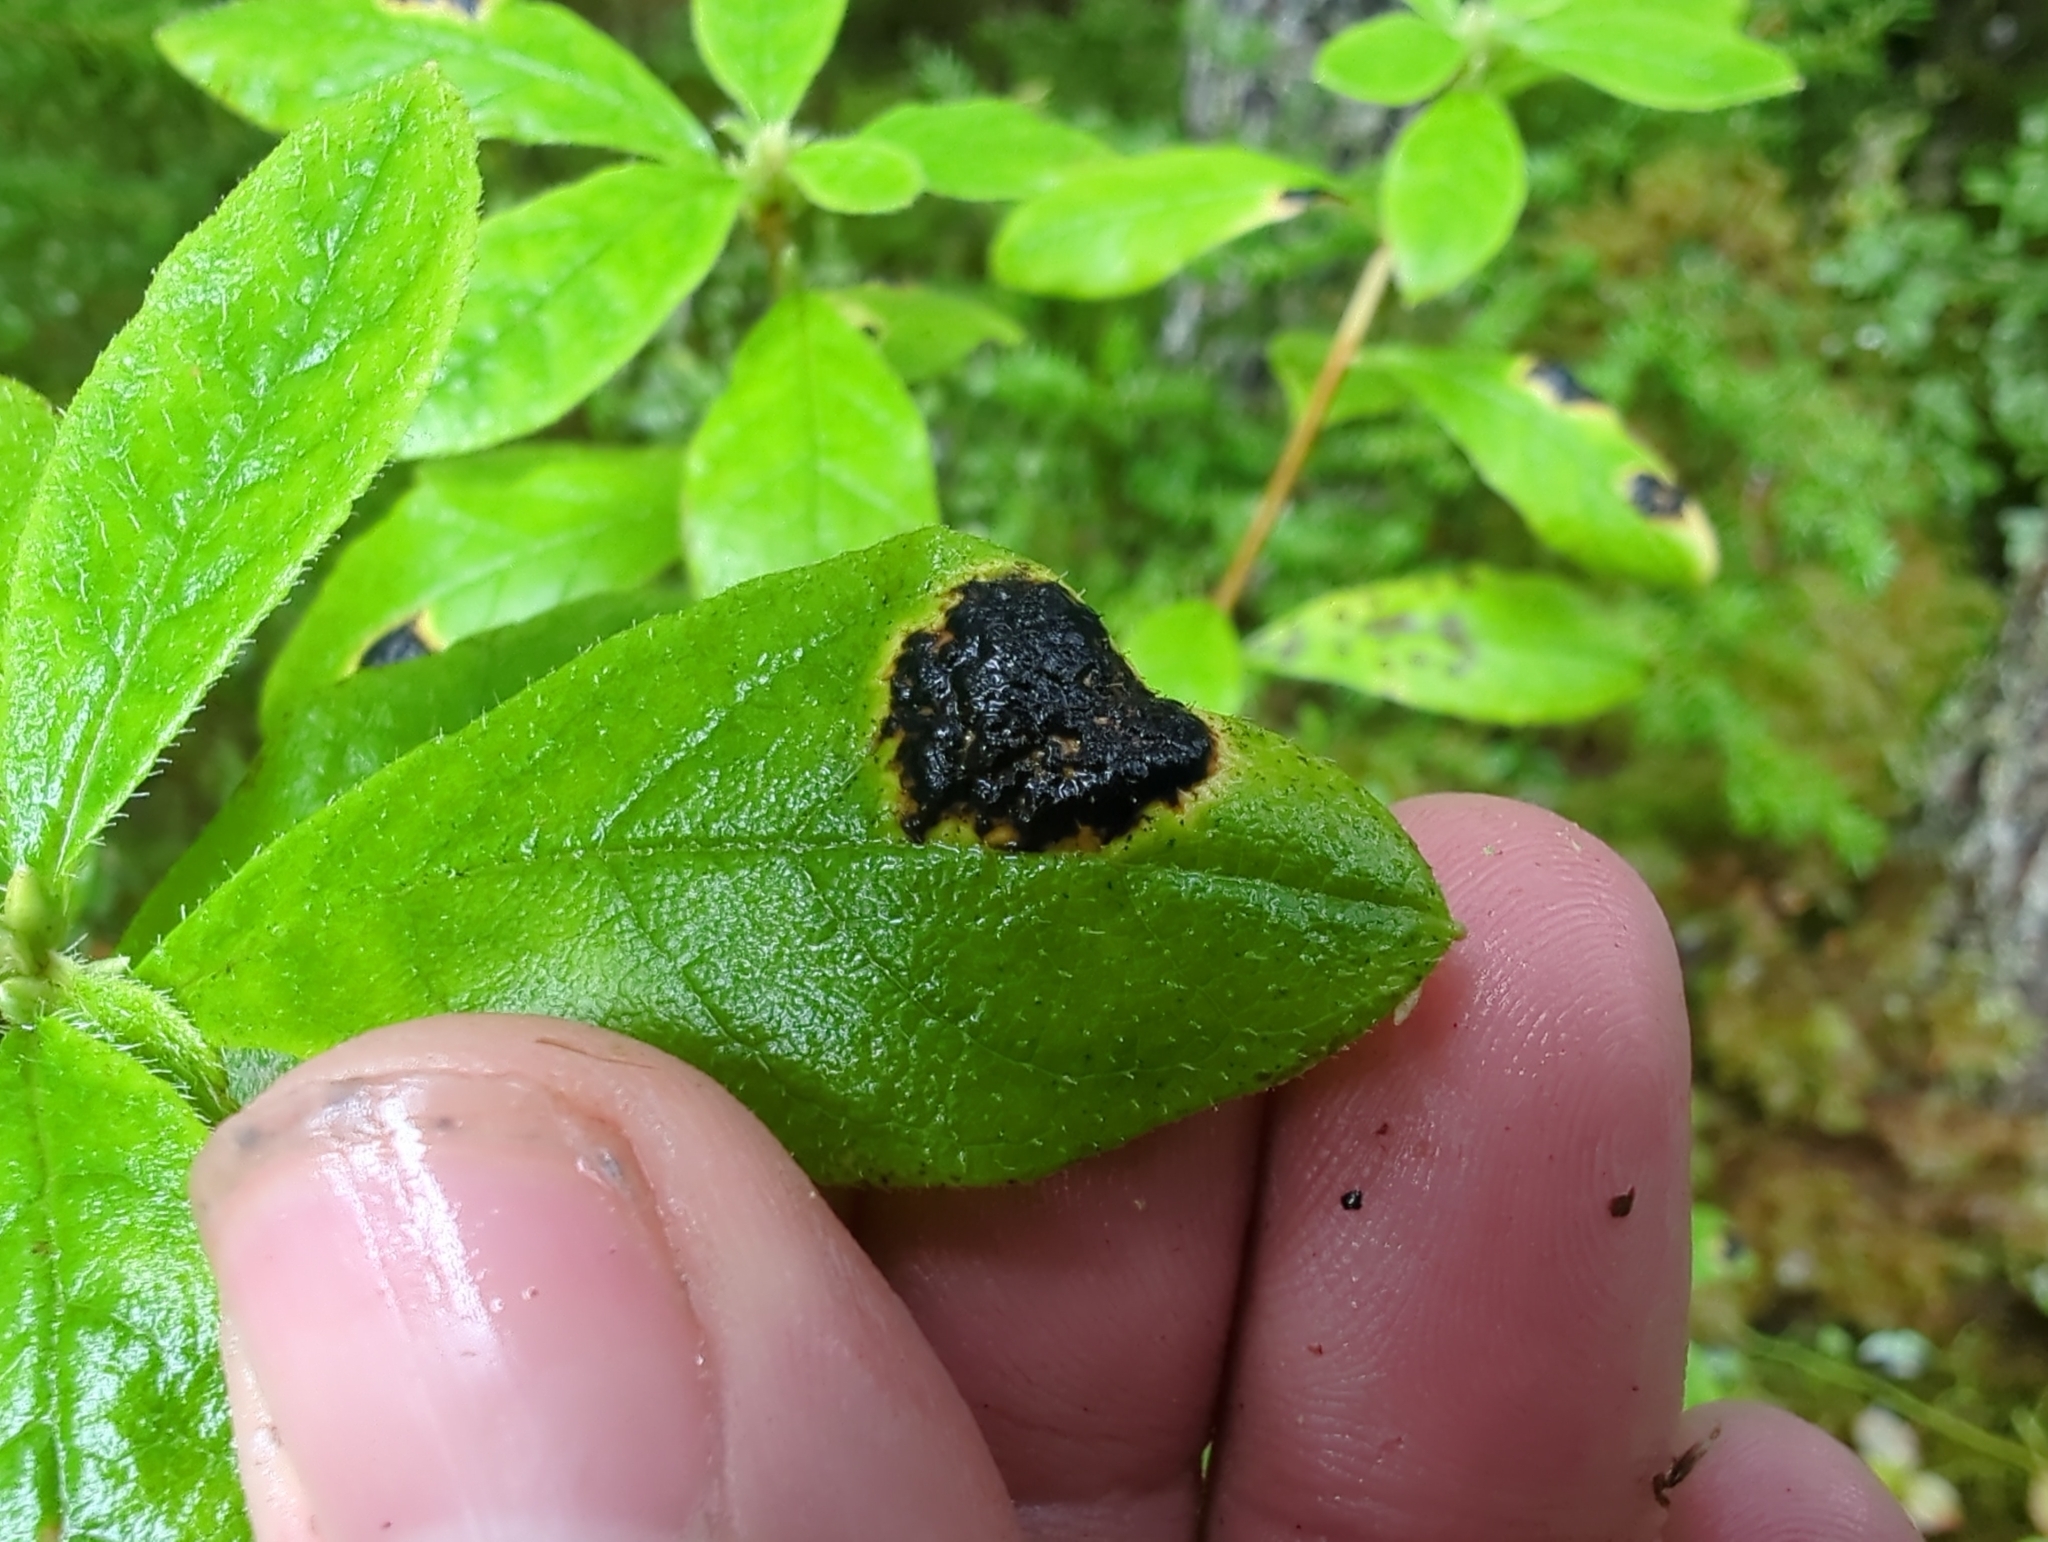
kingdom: Fungi
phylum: Ascomycota
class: Leotiomycetes
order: Rhytismatales
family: Rhytismataceae
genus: Rhytisma
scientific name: Rhytisma
